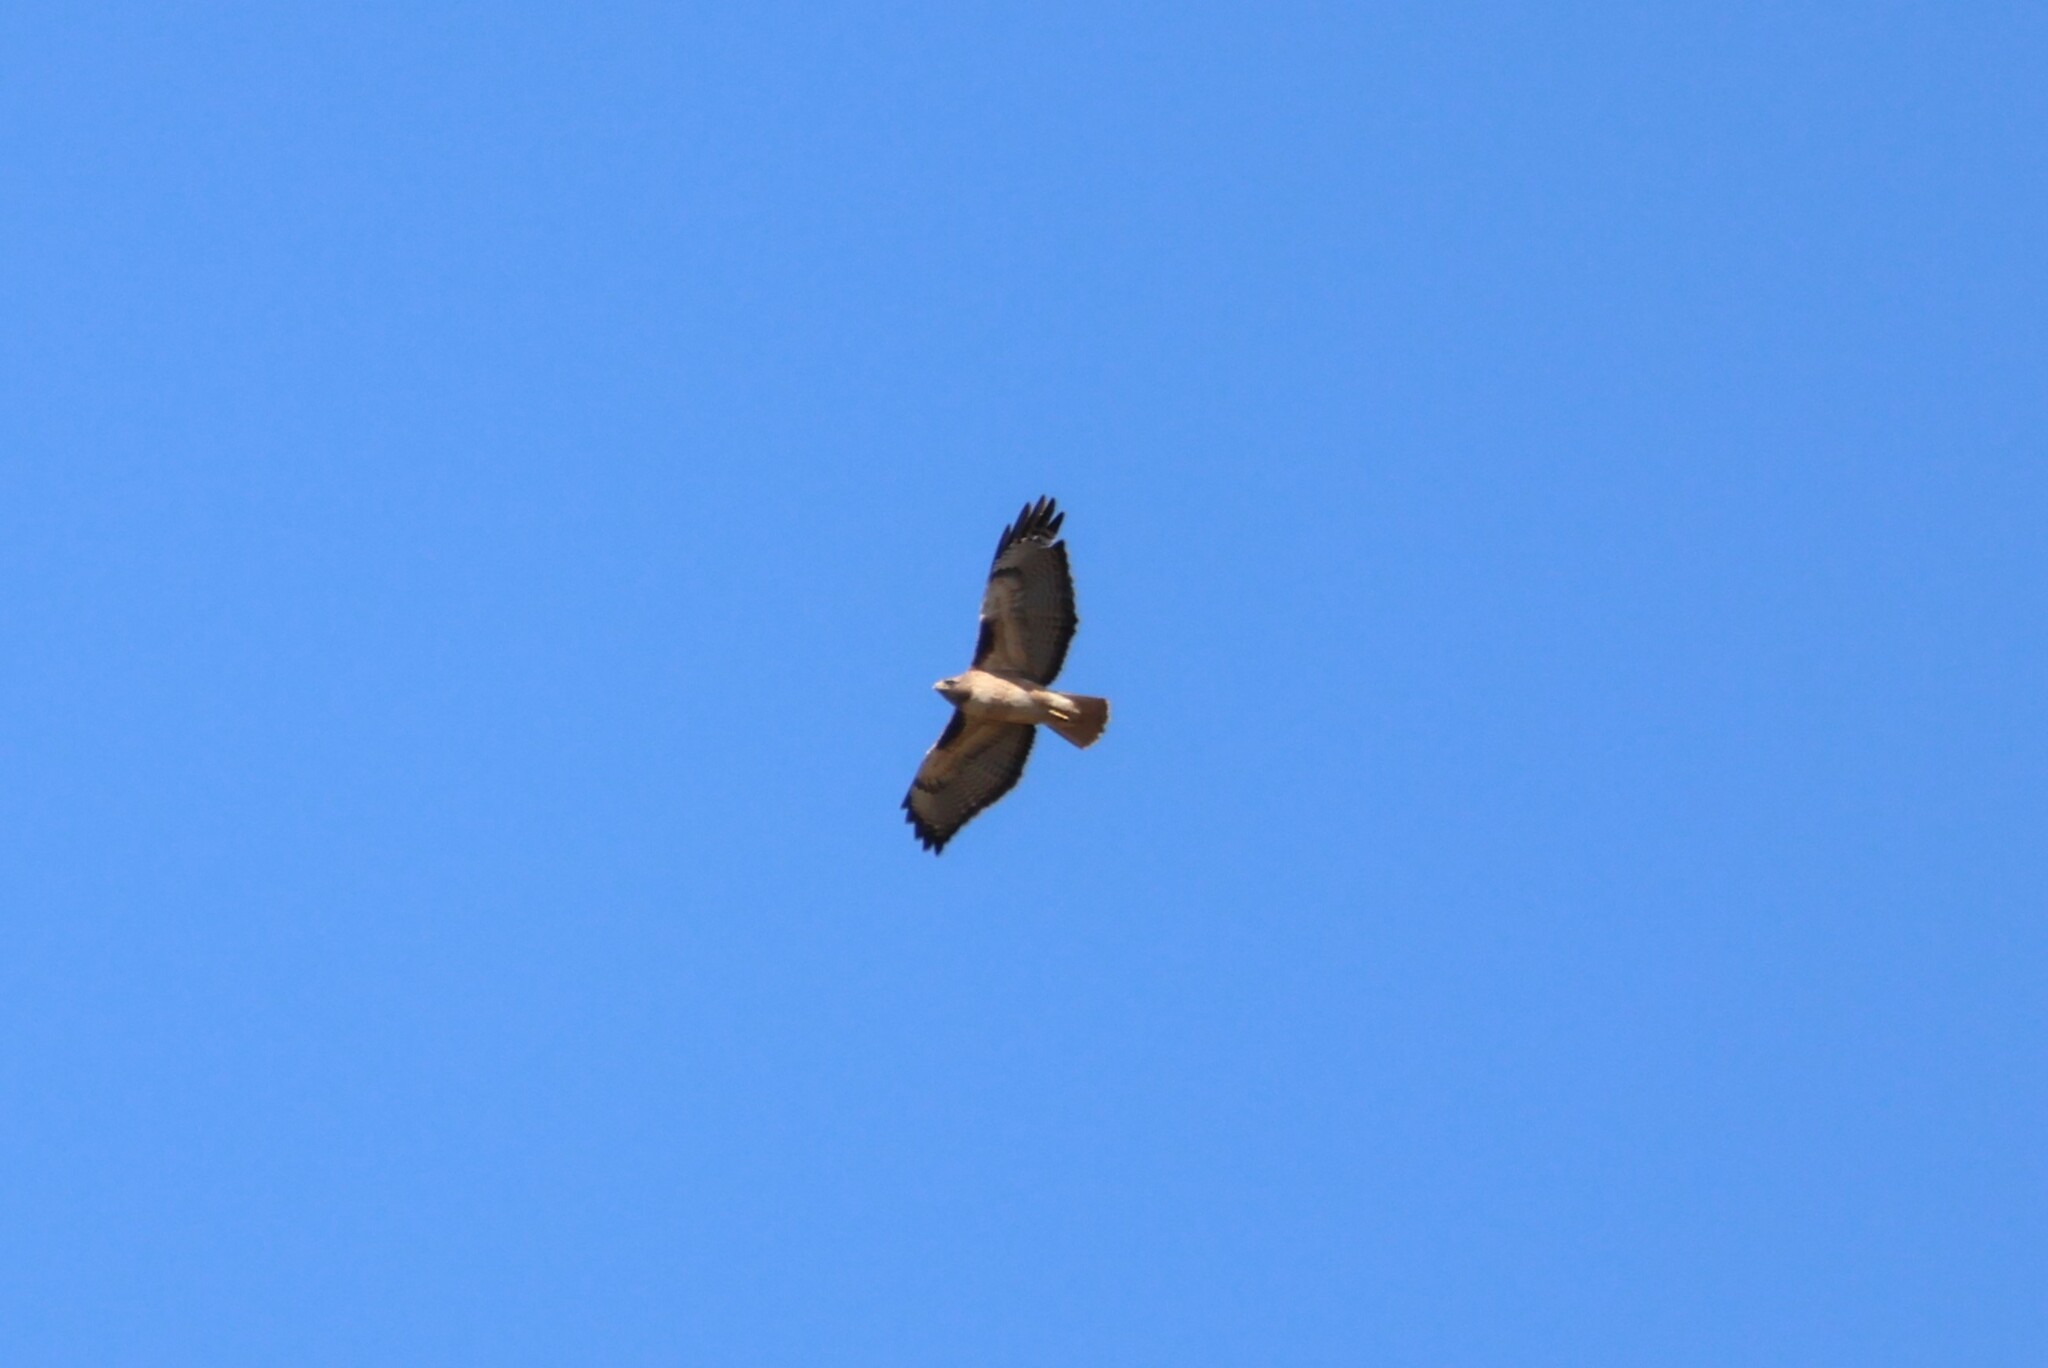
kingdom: Animalia
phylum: Chordata
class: Aves
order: Accipitriformes
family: Accipitridae
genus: Buteo
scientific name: Buteo jamaicensis
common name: Red-tailed hawk
